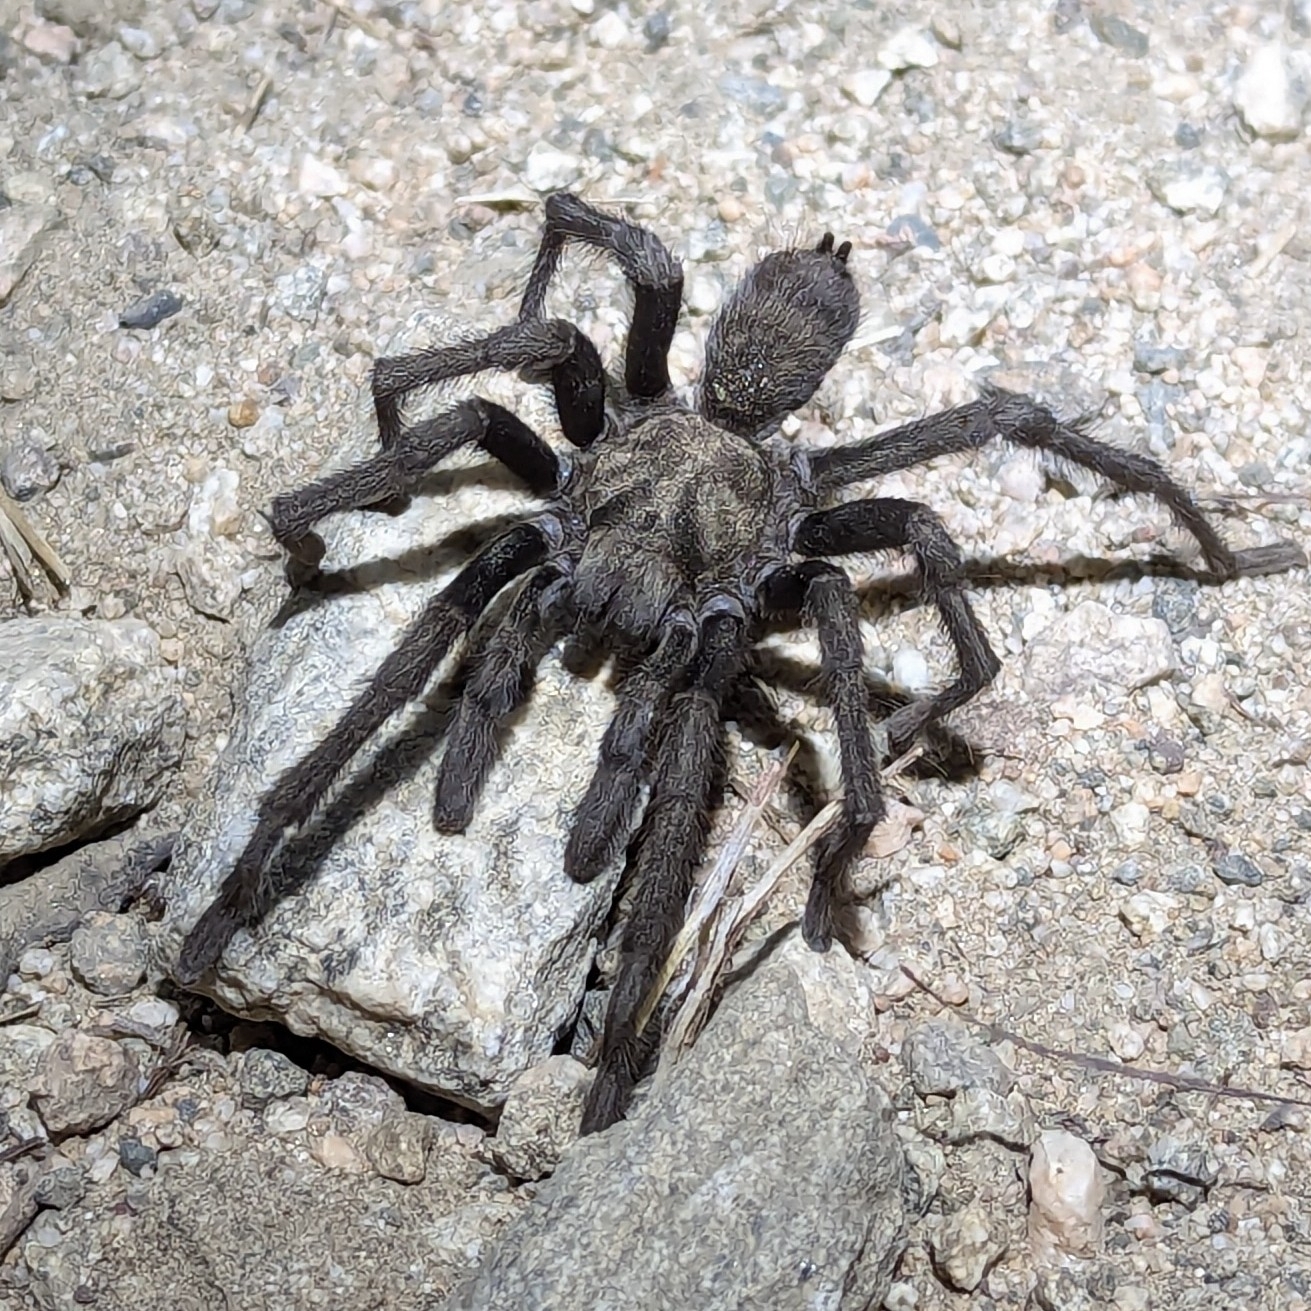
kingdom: Animalia
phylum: Arthropoda
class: Arachnida
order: Araneae
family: Theraphosidae
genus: Aphonopelma
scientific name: Aphonopelma steindachneri
